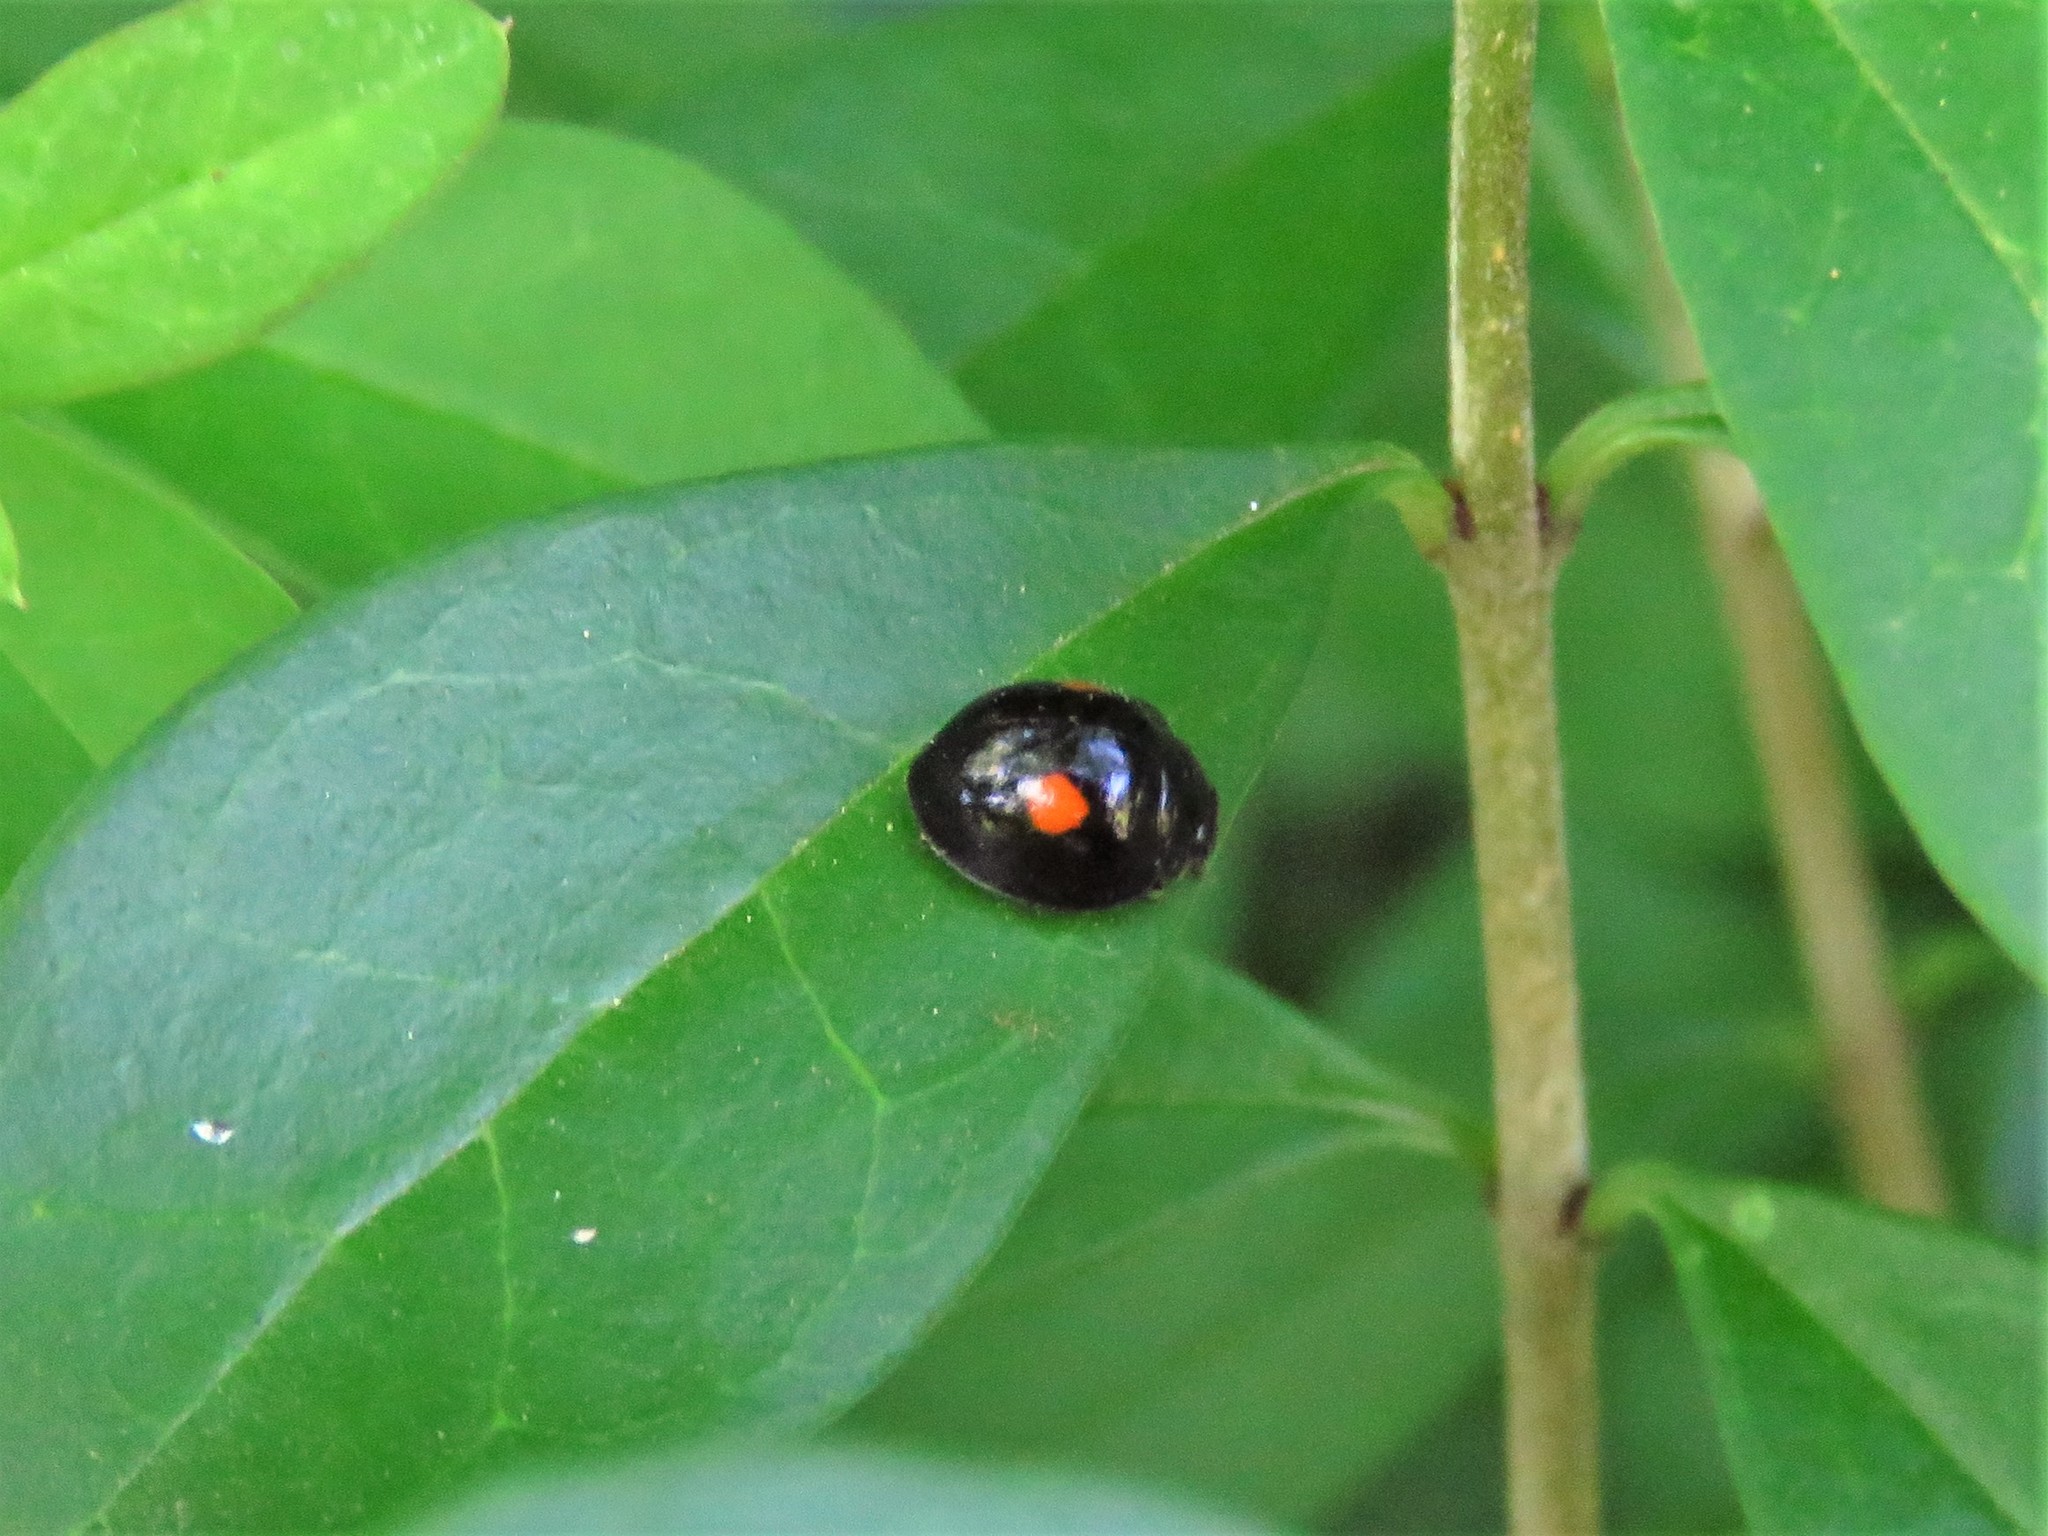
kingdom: Animalia
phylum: Arthropoda
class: Insecta
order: Coleoptera
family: Coccinellidae
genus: Chilocorus
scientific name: Chilocorus stigma
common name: Twicestabbed lady beetle
